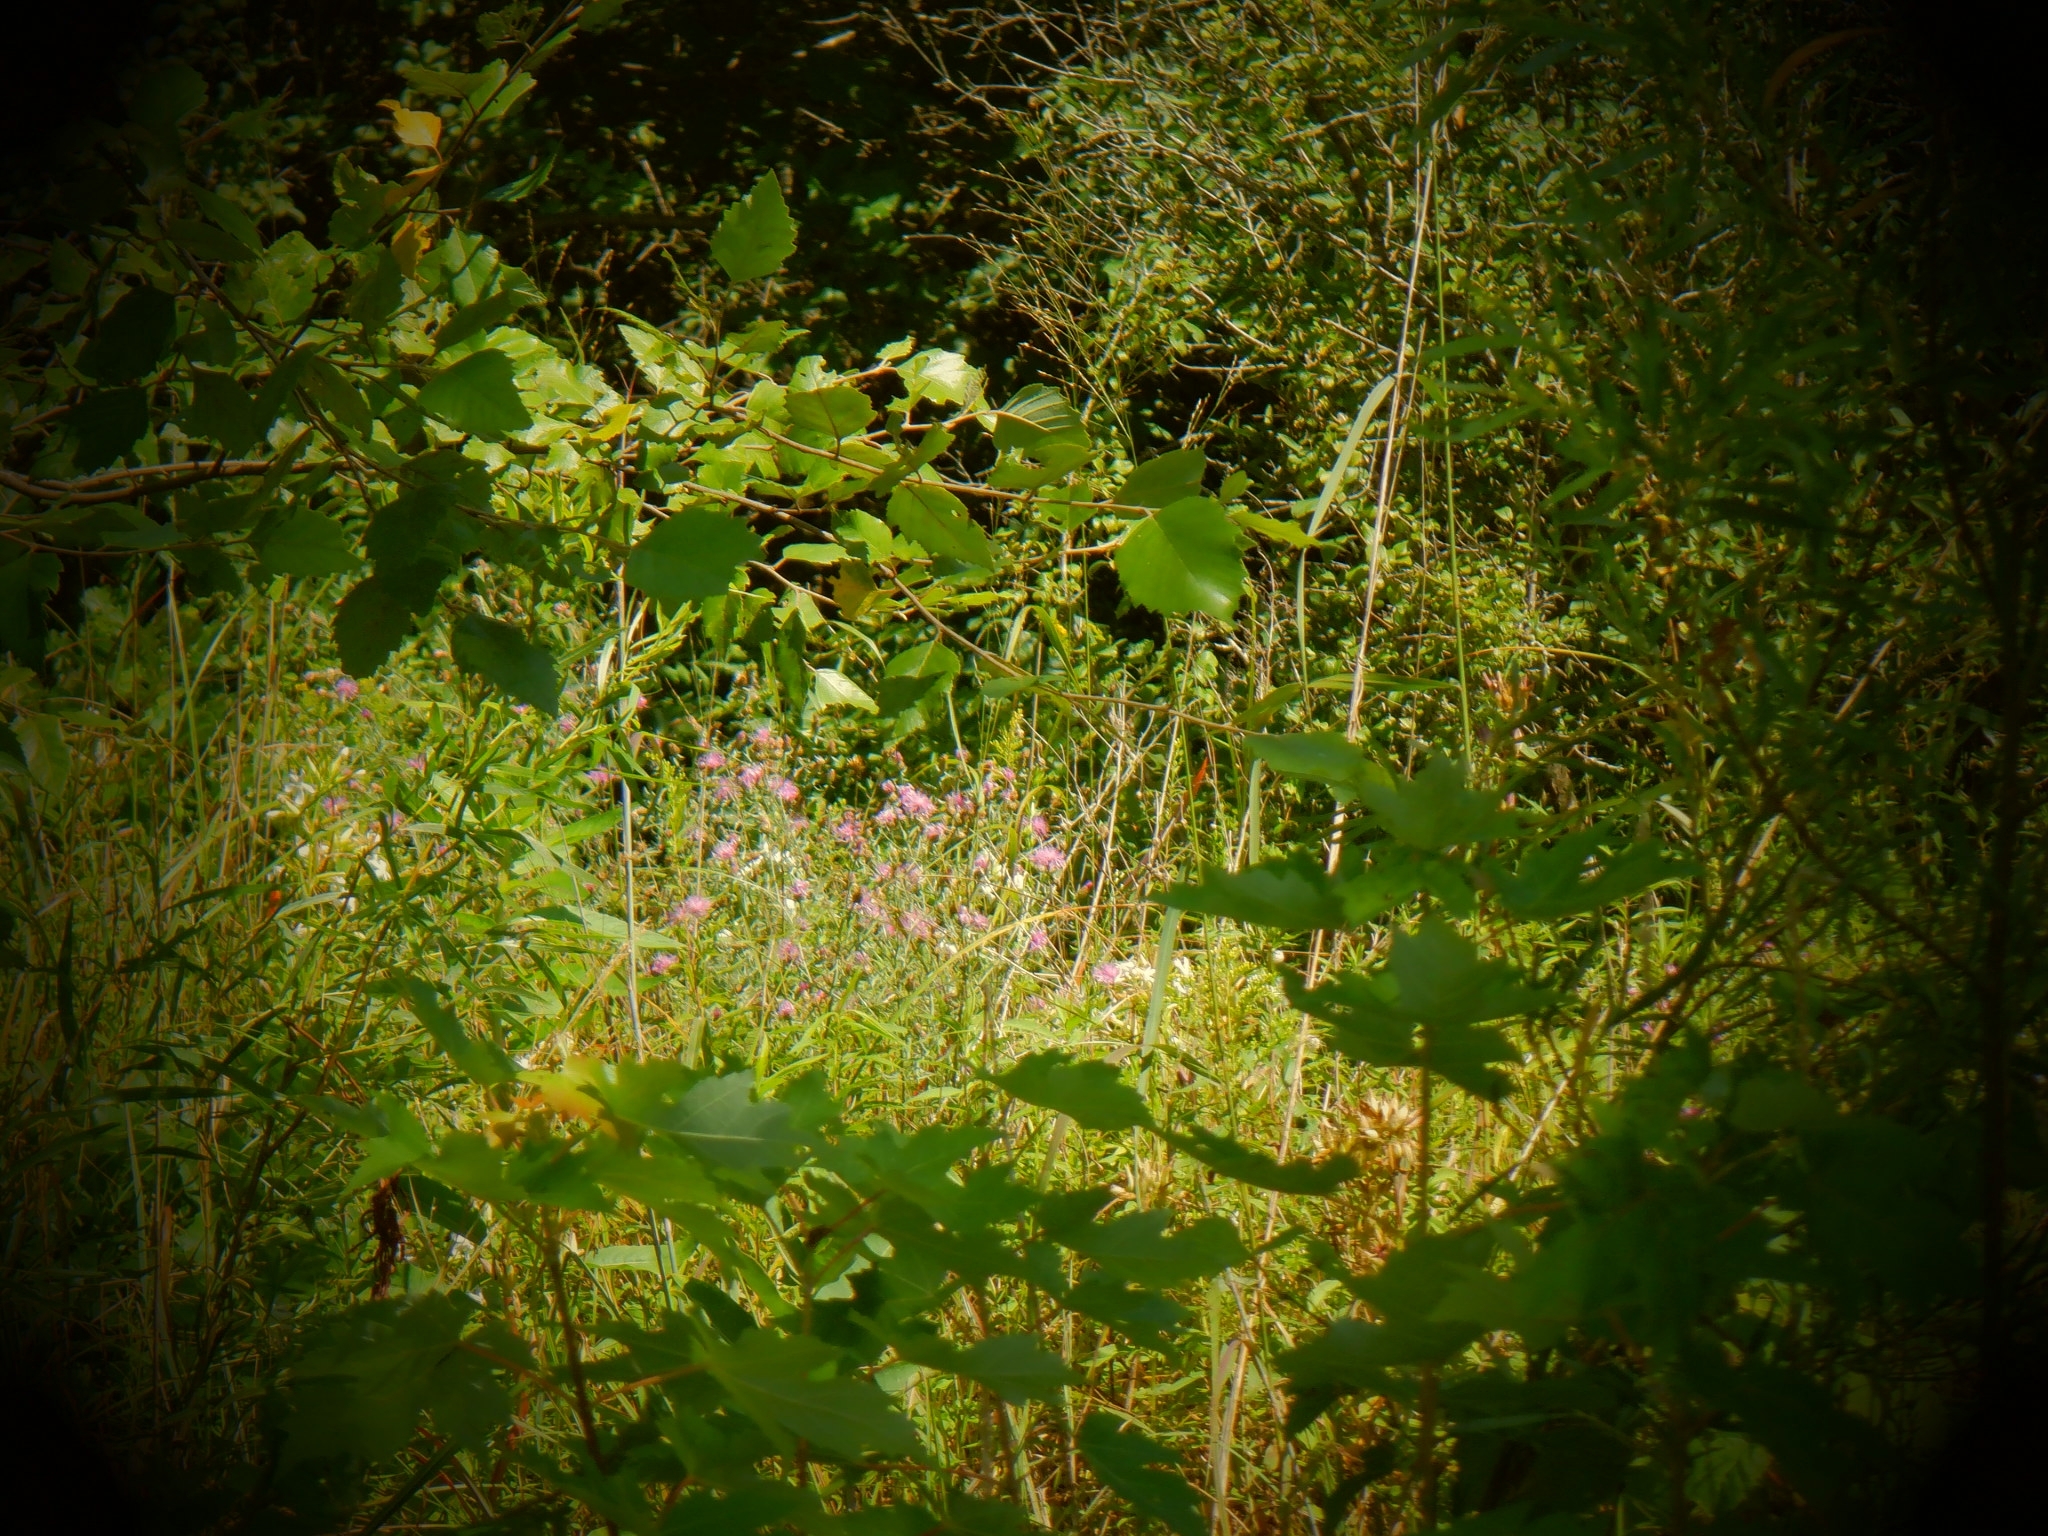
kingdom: Plantae
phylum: Tracheophyta
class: Magnoliopsida
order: Lamiales
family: Lamiaceae
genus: Monarda
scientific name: Monarda fistulosa
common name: Purple beebalm
